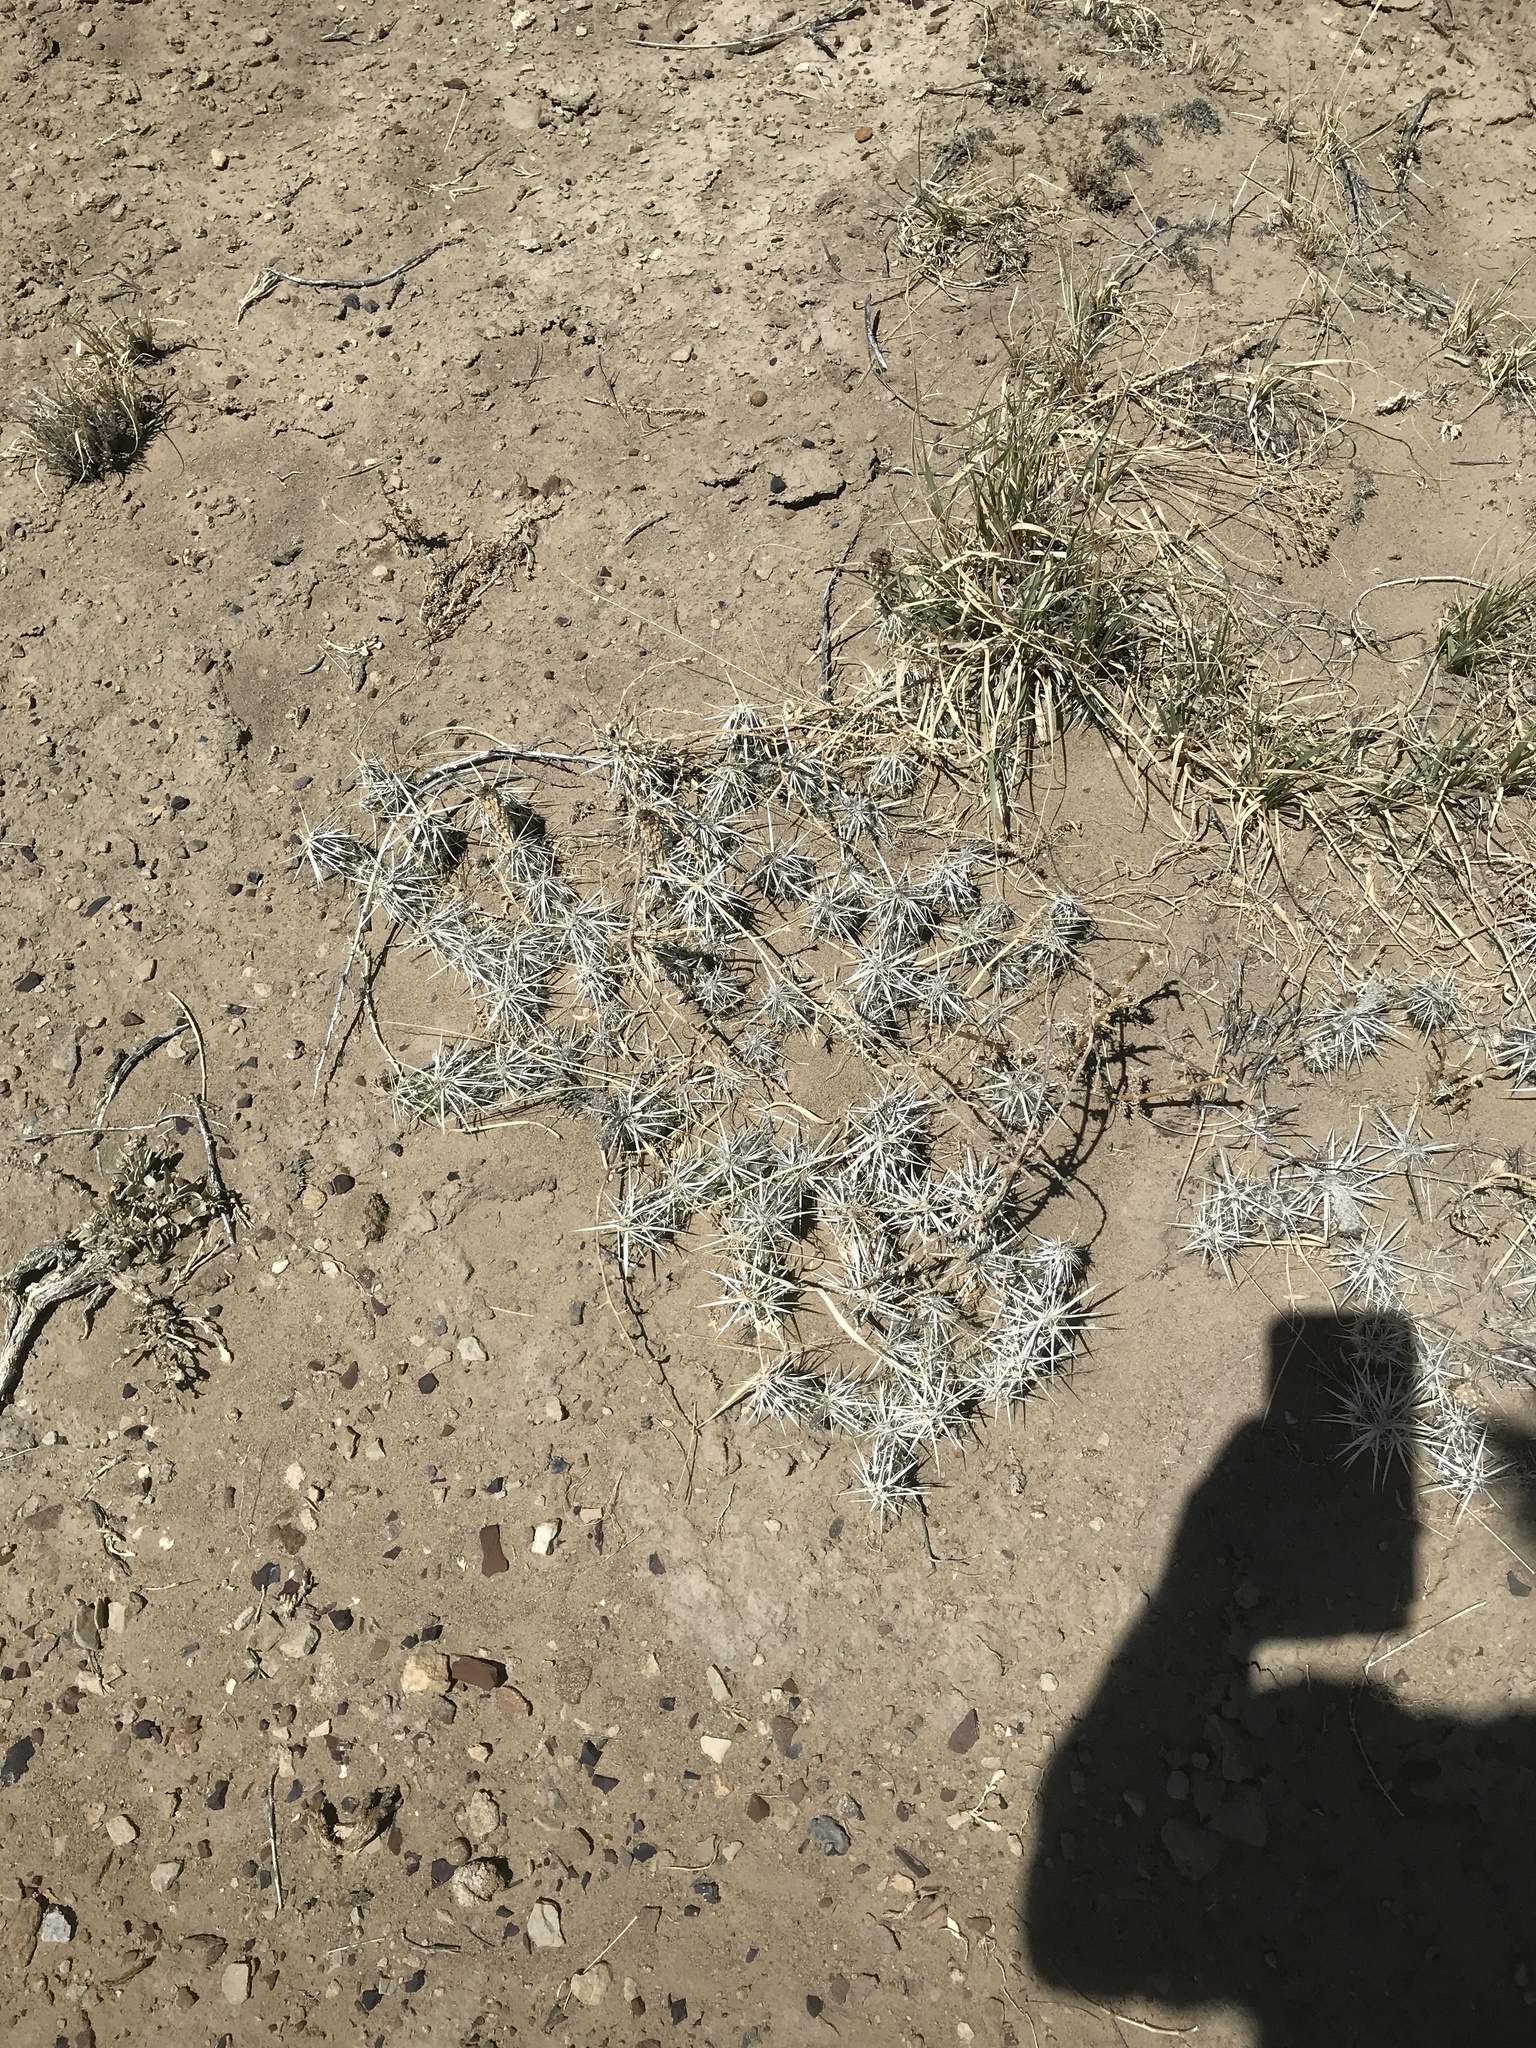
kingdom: Plantae
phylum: Tracheophyta
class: Magnoliopsida
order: Caryophyllales
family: Cactaceae
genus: Grusonia
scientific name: Grusonia clavata
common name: Club cholla
